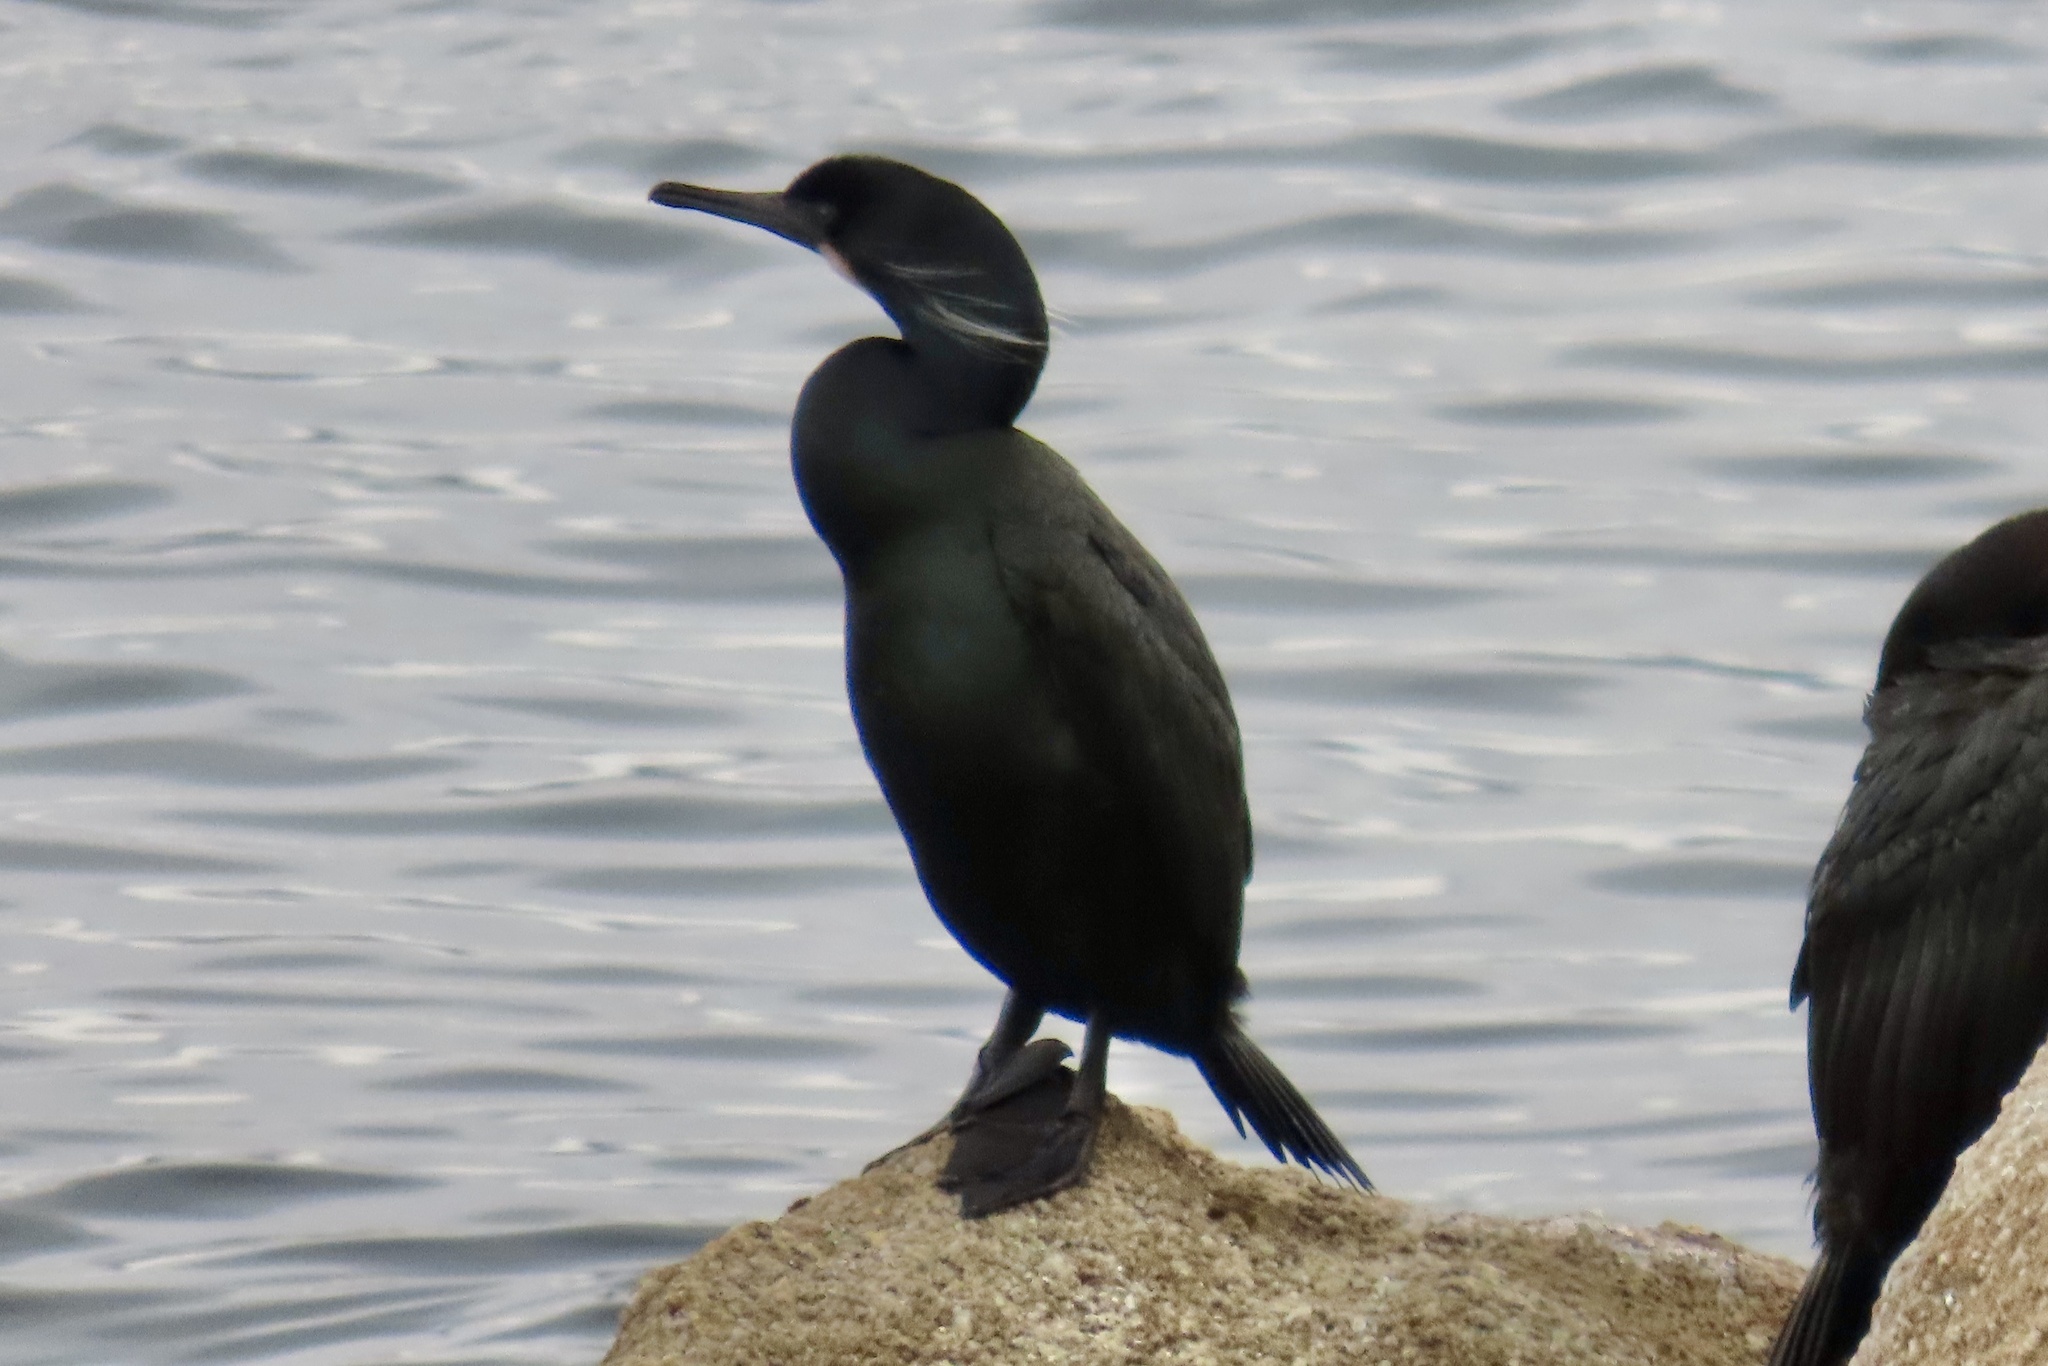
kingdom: Animalia
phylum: Chordata
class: Aves
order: Suliformes
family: Phalacrocoracidae
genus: Urile
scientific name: Urile penicillatus
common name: Brandt's cormorant
